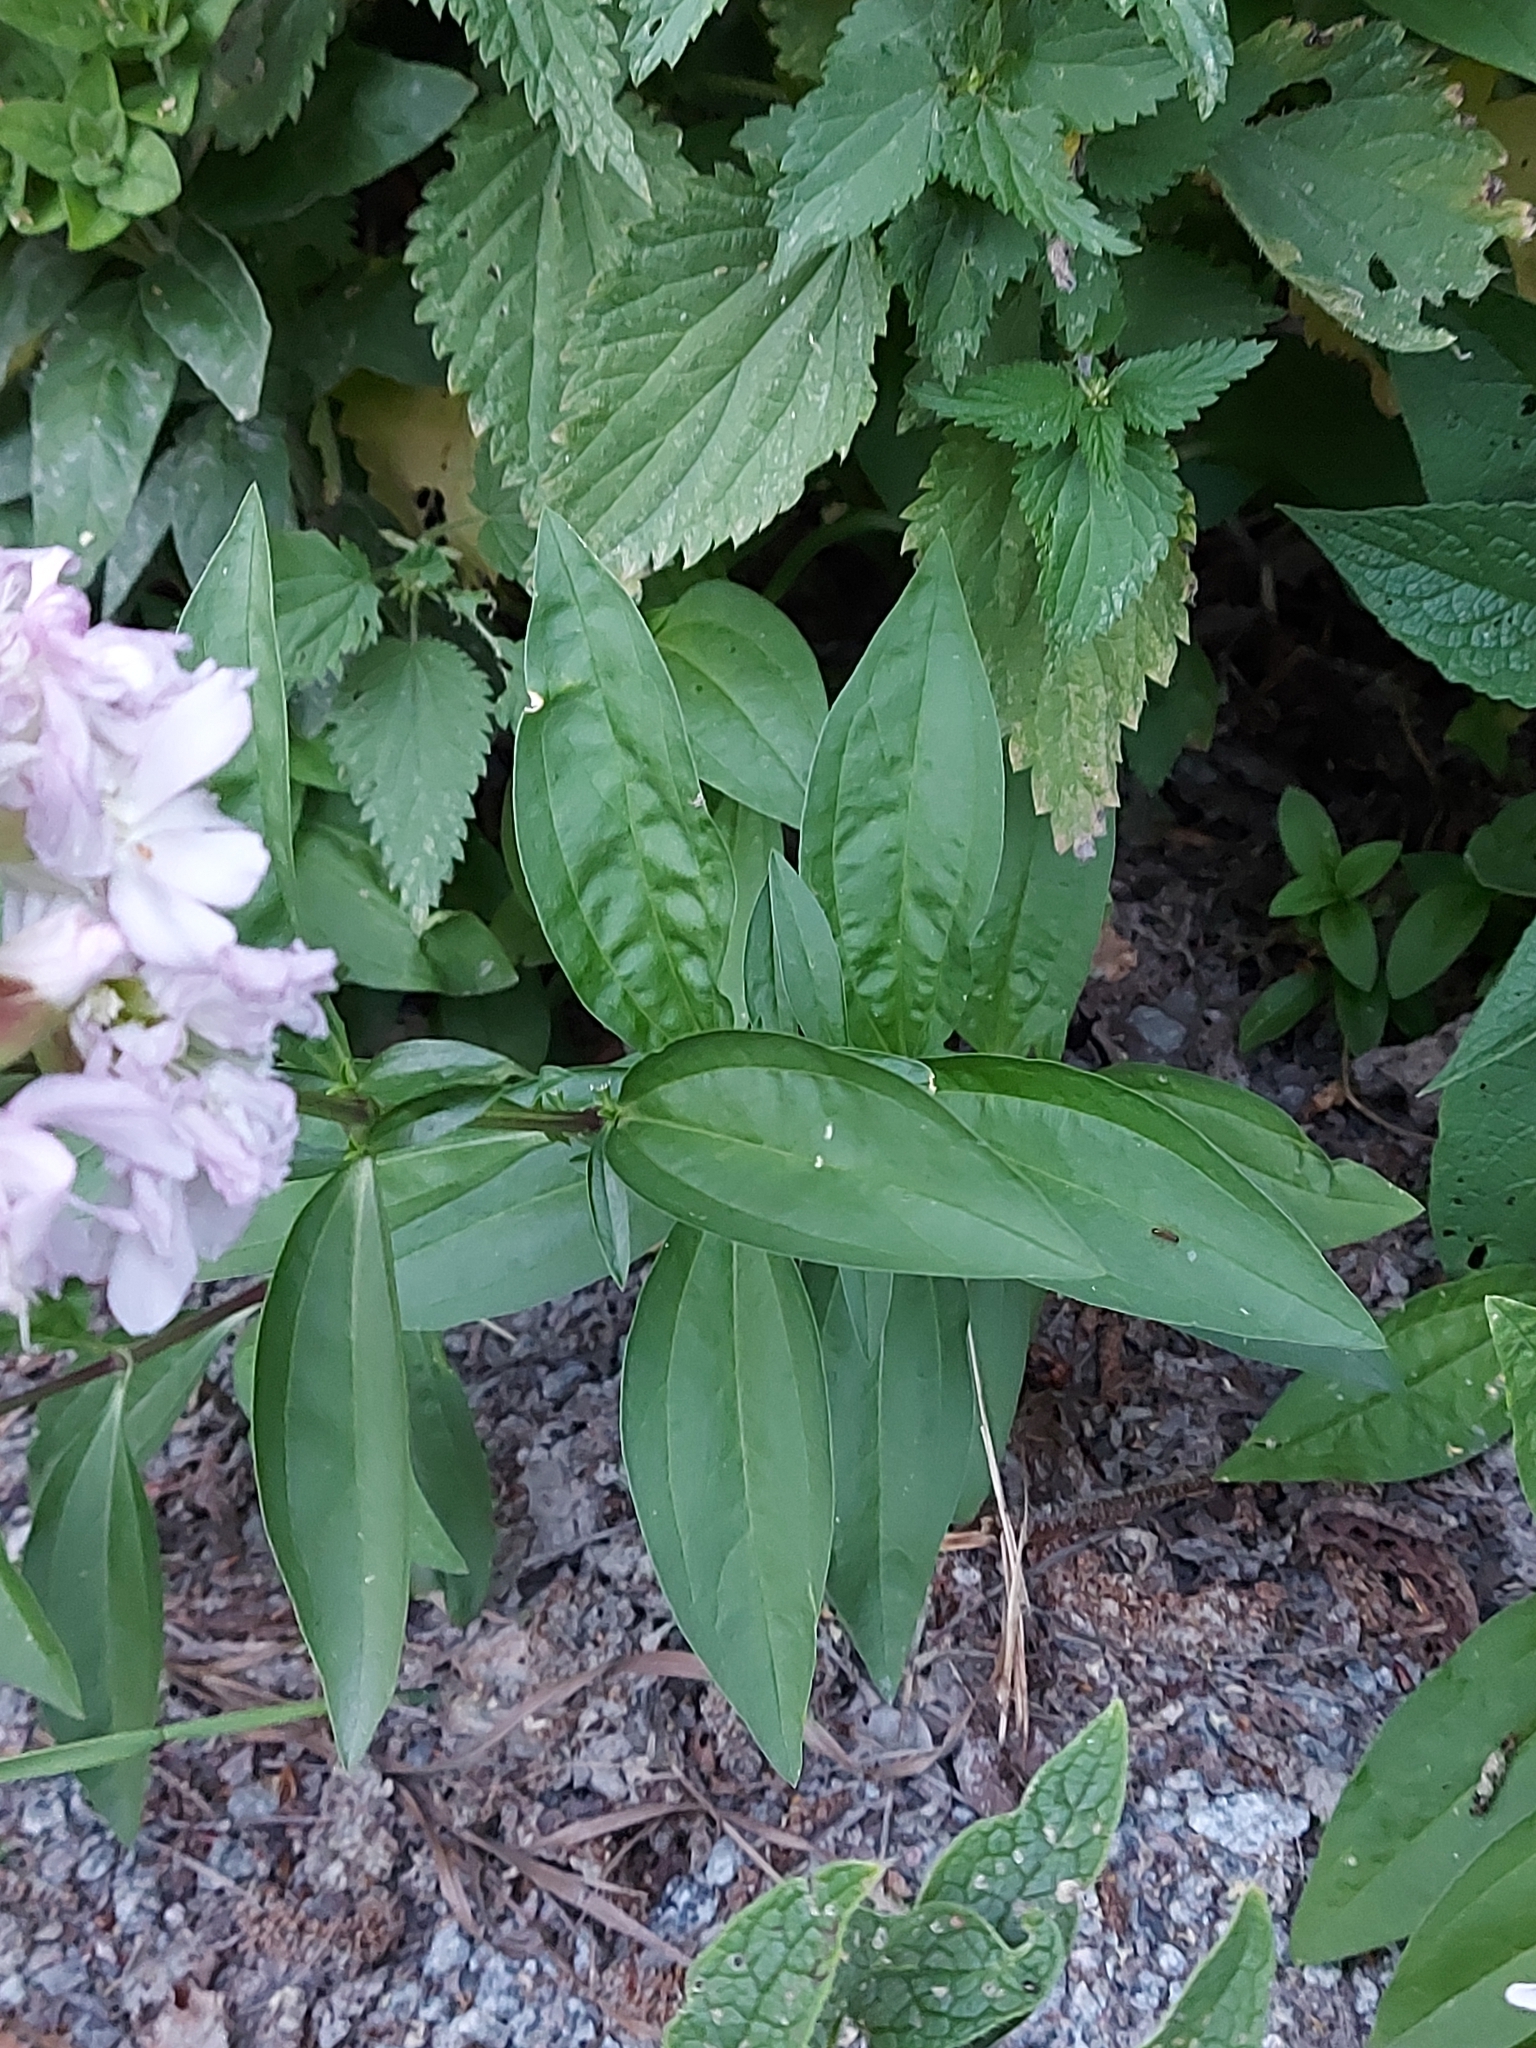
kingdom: Plantae
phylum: Tracheophyta
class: Magnoliopsida
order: Caryophyllales
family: Caryophyllaceae
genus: Saponaria
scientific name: Saponaria officinalis
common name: Soapwort
